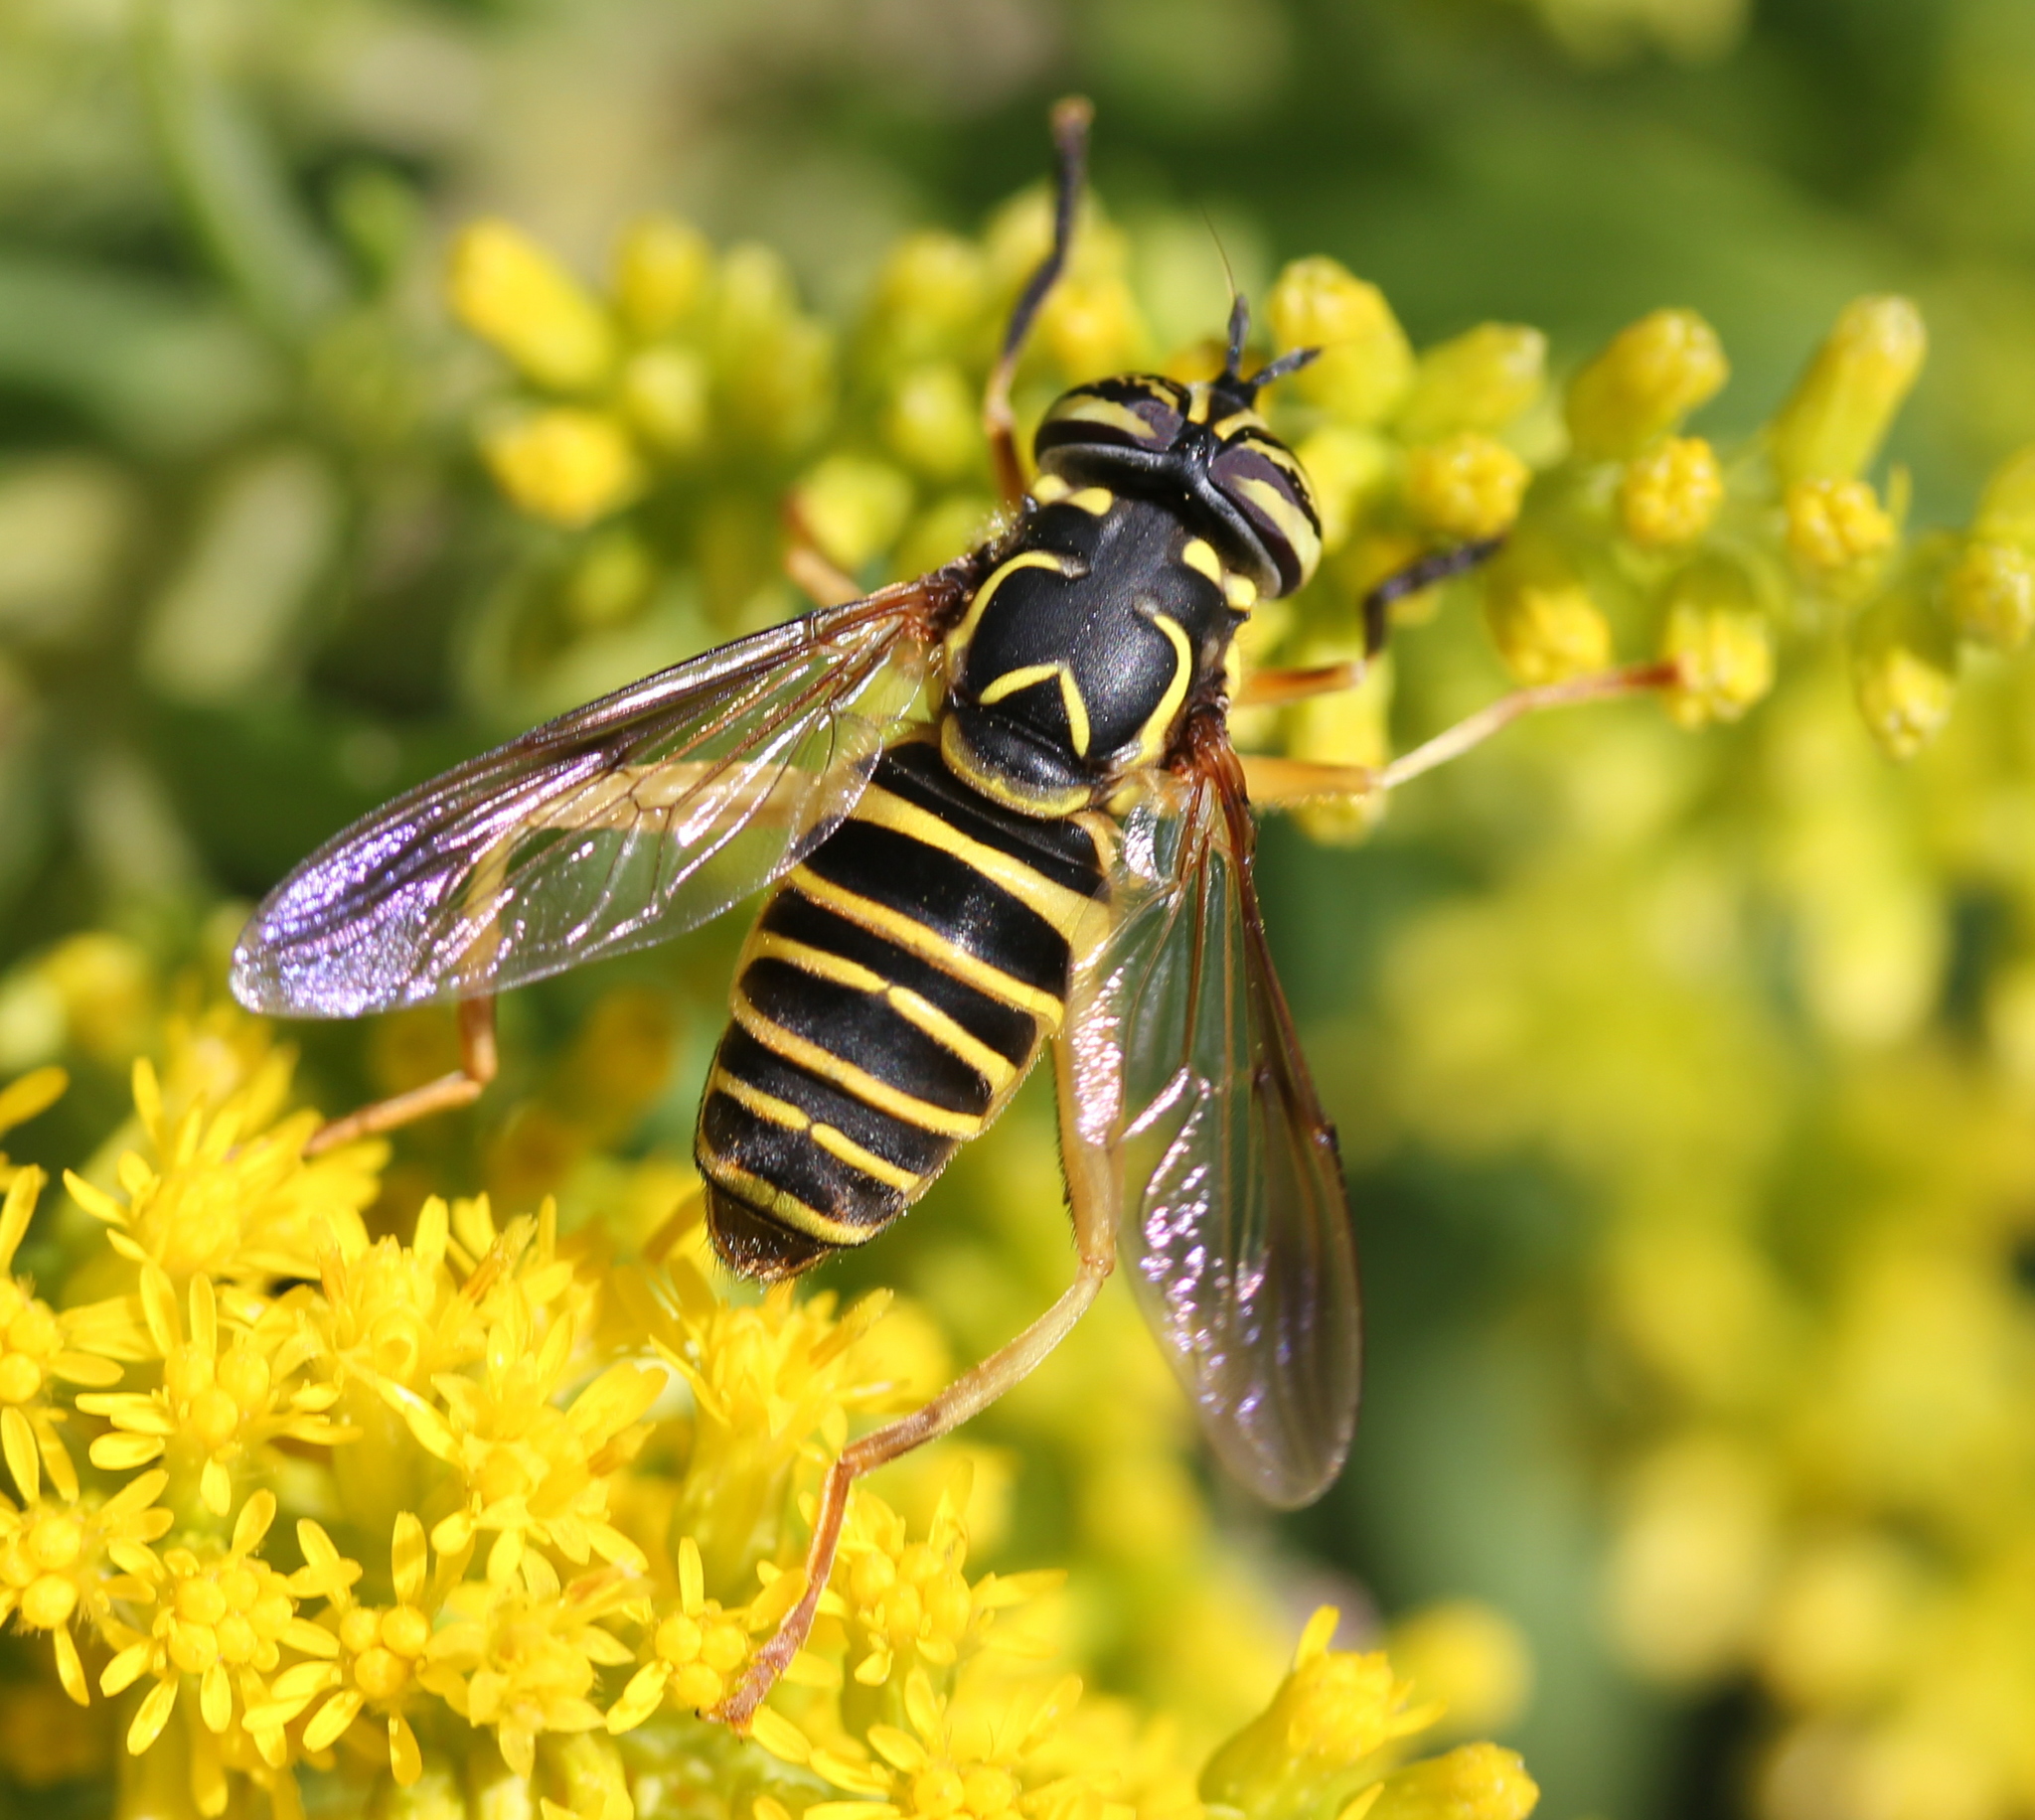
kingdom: Animalia
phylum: Arthropoda
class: Insecta
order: Diptera
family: Syrphidae
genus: Spilomyia
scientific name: Spilomyia longicornis
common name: Eastern hornet fly
